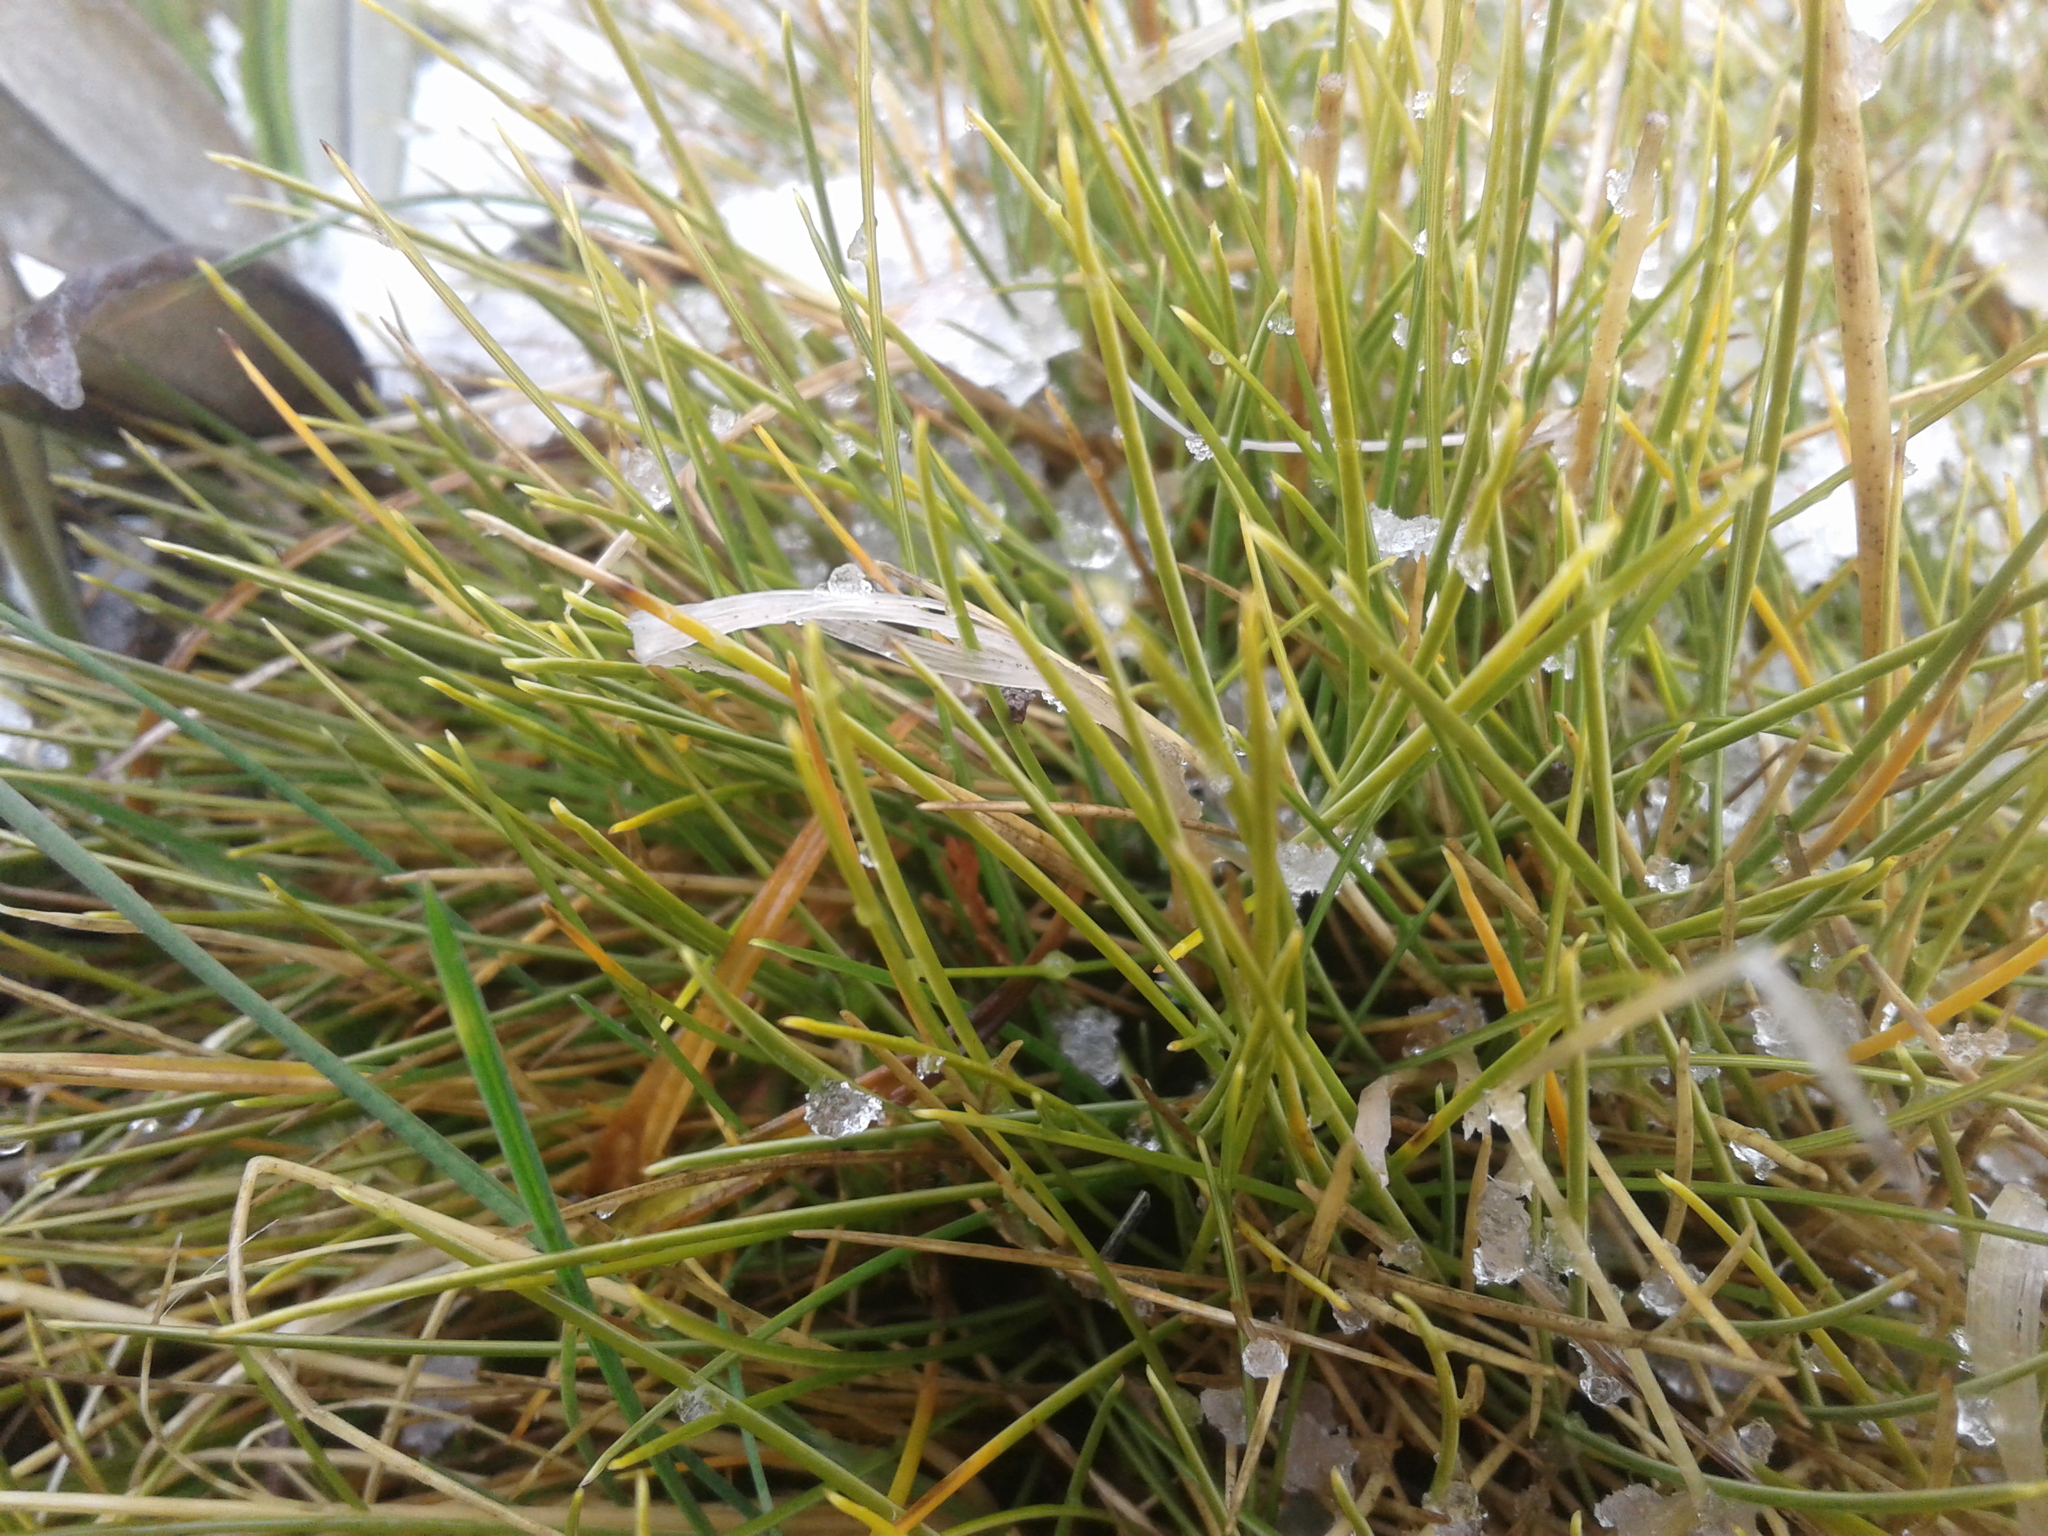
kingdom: Plantae
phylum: Tracheophyta
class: Liliopsida
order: Poales
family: Poaceae
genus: Chionochloa
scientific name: Chionochloa australis
